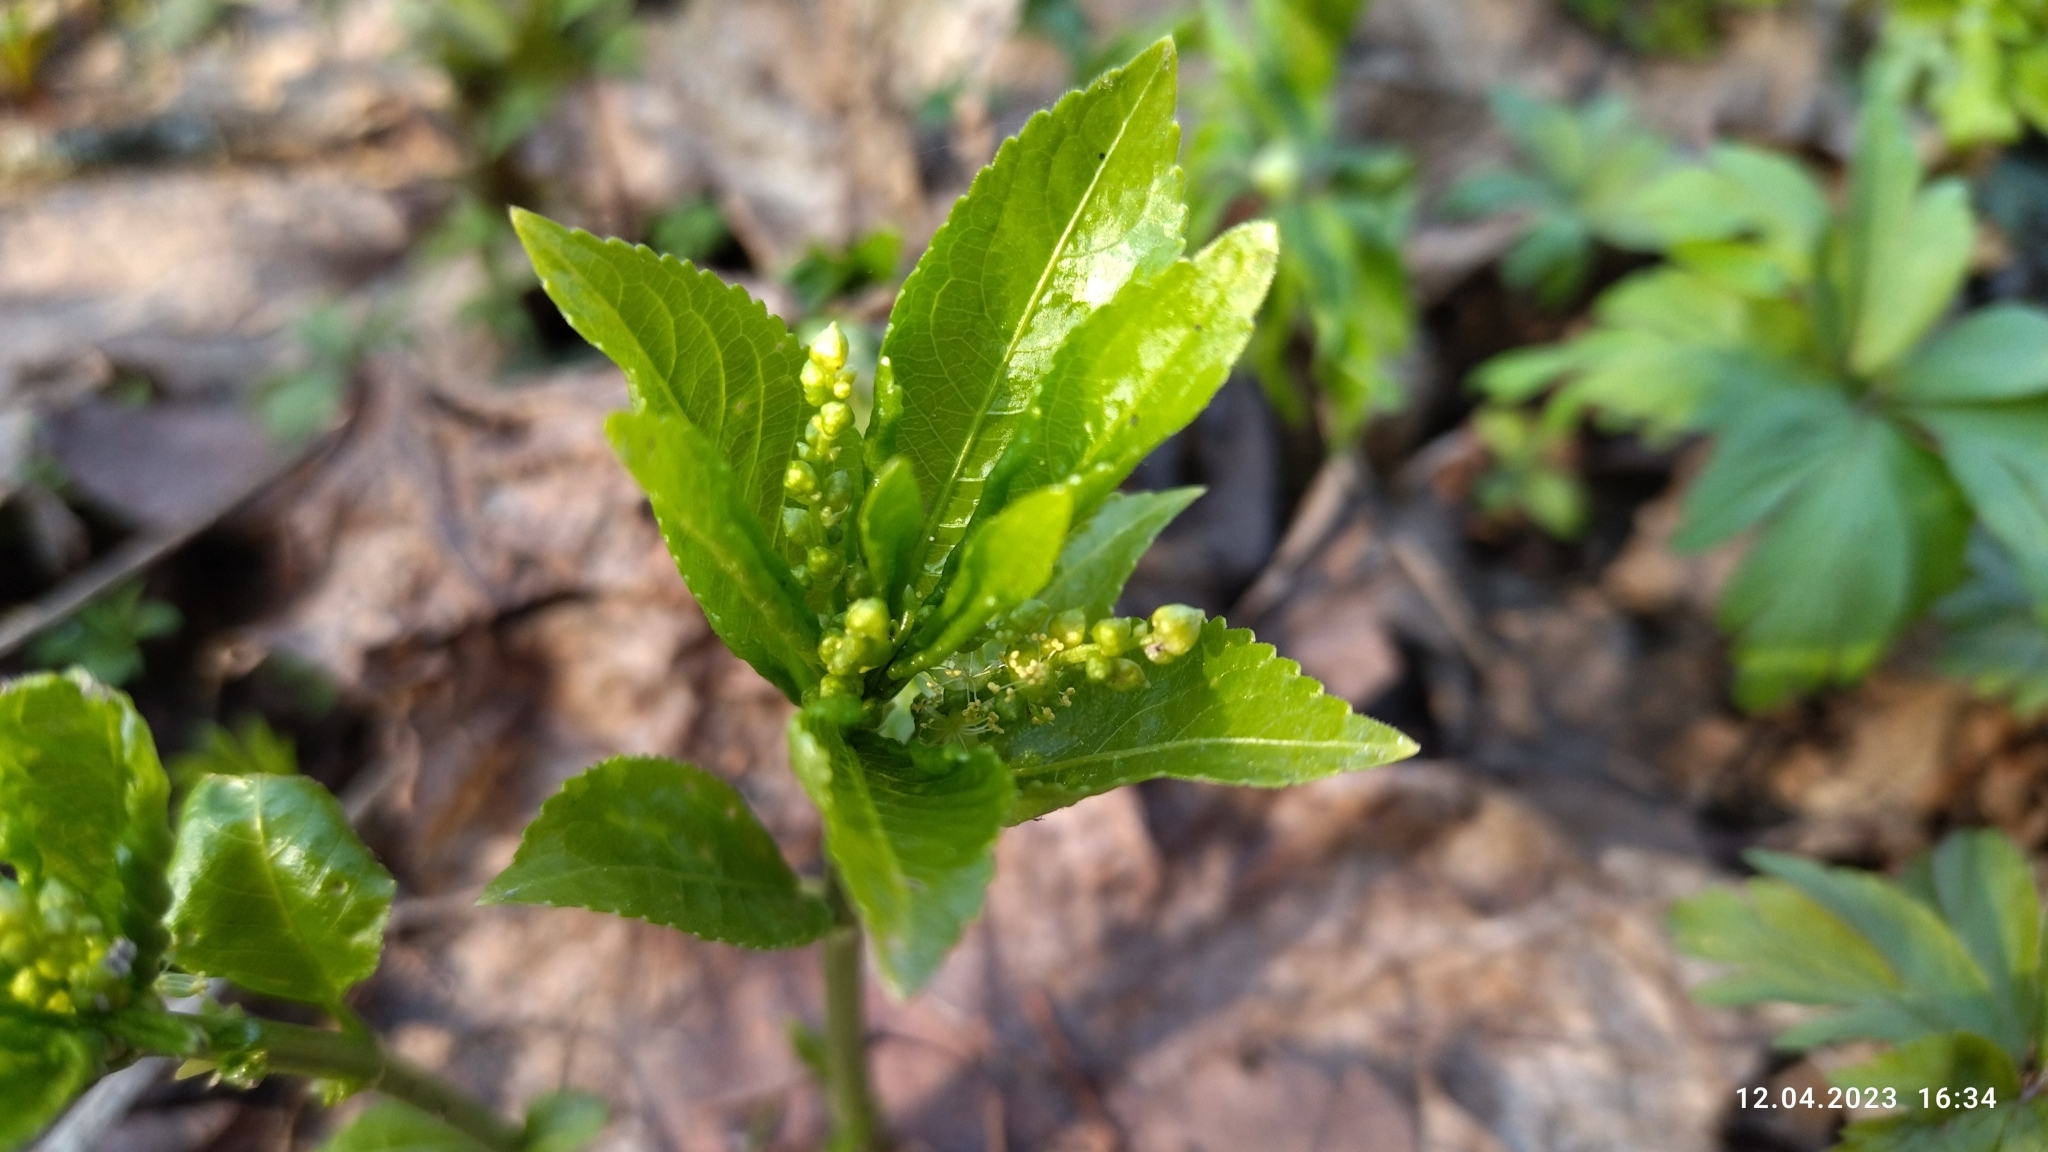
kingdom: Plantae
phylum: Tracheophyta
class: Magnoliopsida
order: Malpighiales
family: Euphorbiaceae
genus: Mercurialis
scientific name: Mercurialis perennis
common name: Dog mercury
